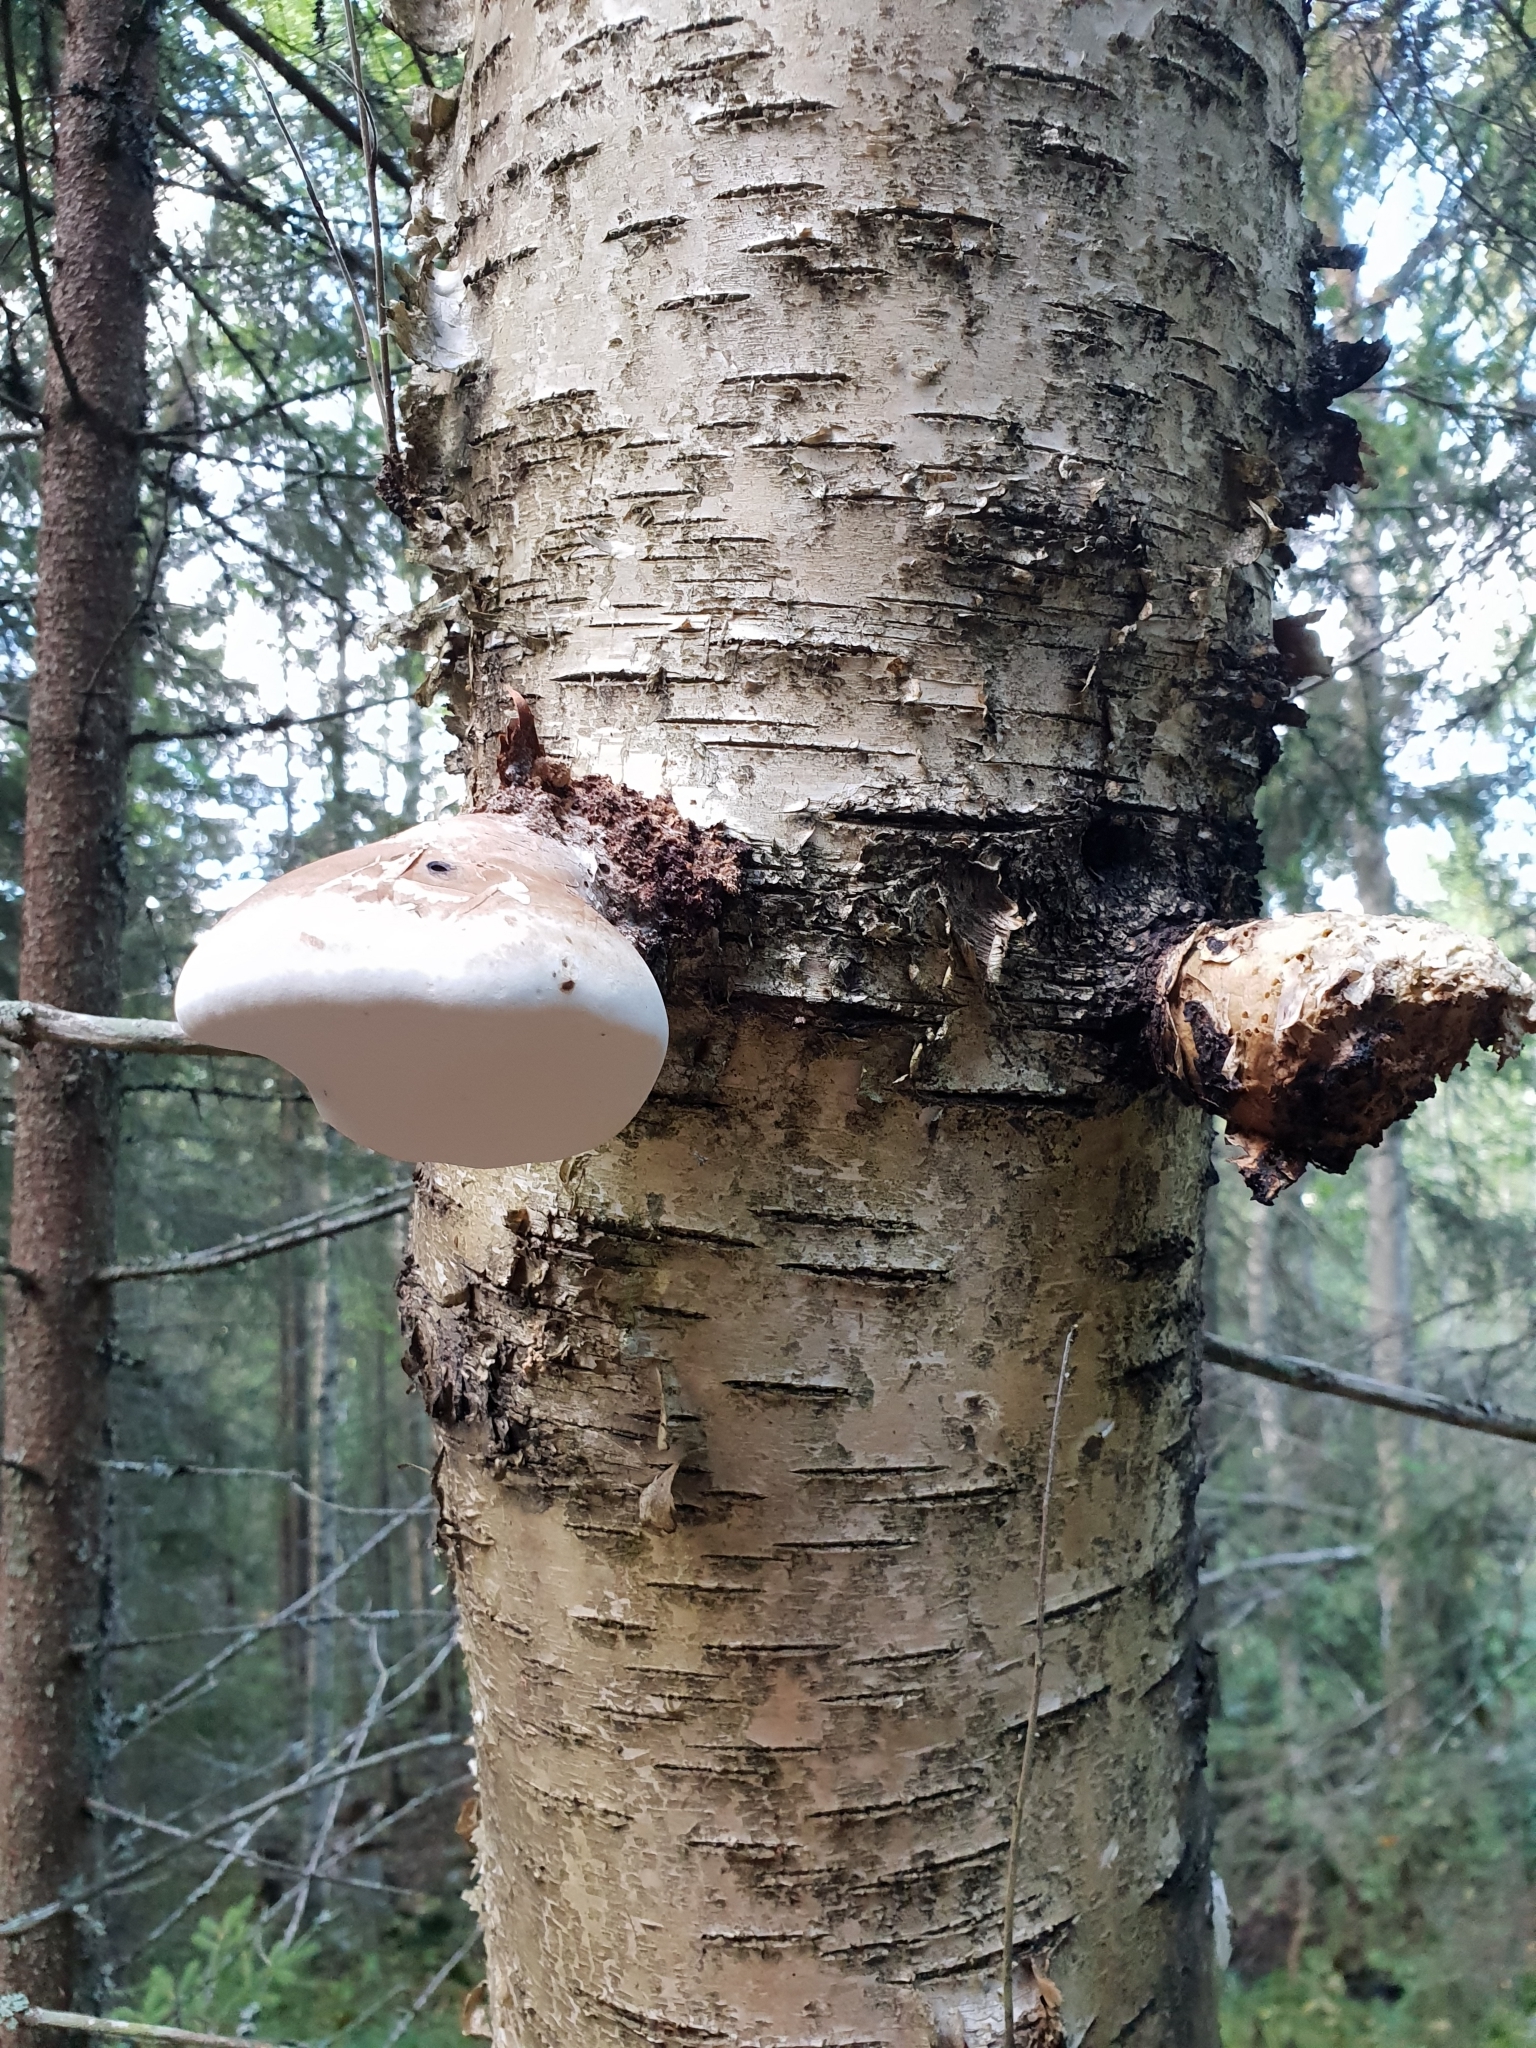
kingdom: Fungi
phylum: Basidiomycota
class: Agaricomycetes
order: Polyporales
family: Fomitopsidaceae
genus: Fomitopsis
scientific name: Fomitopsis betulina
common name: Birch polypore
